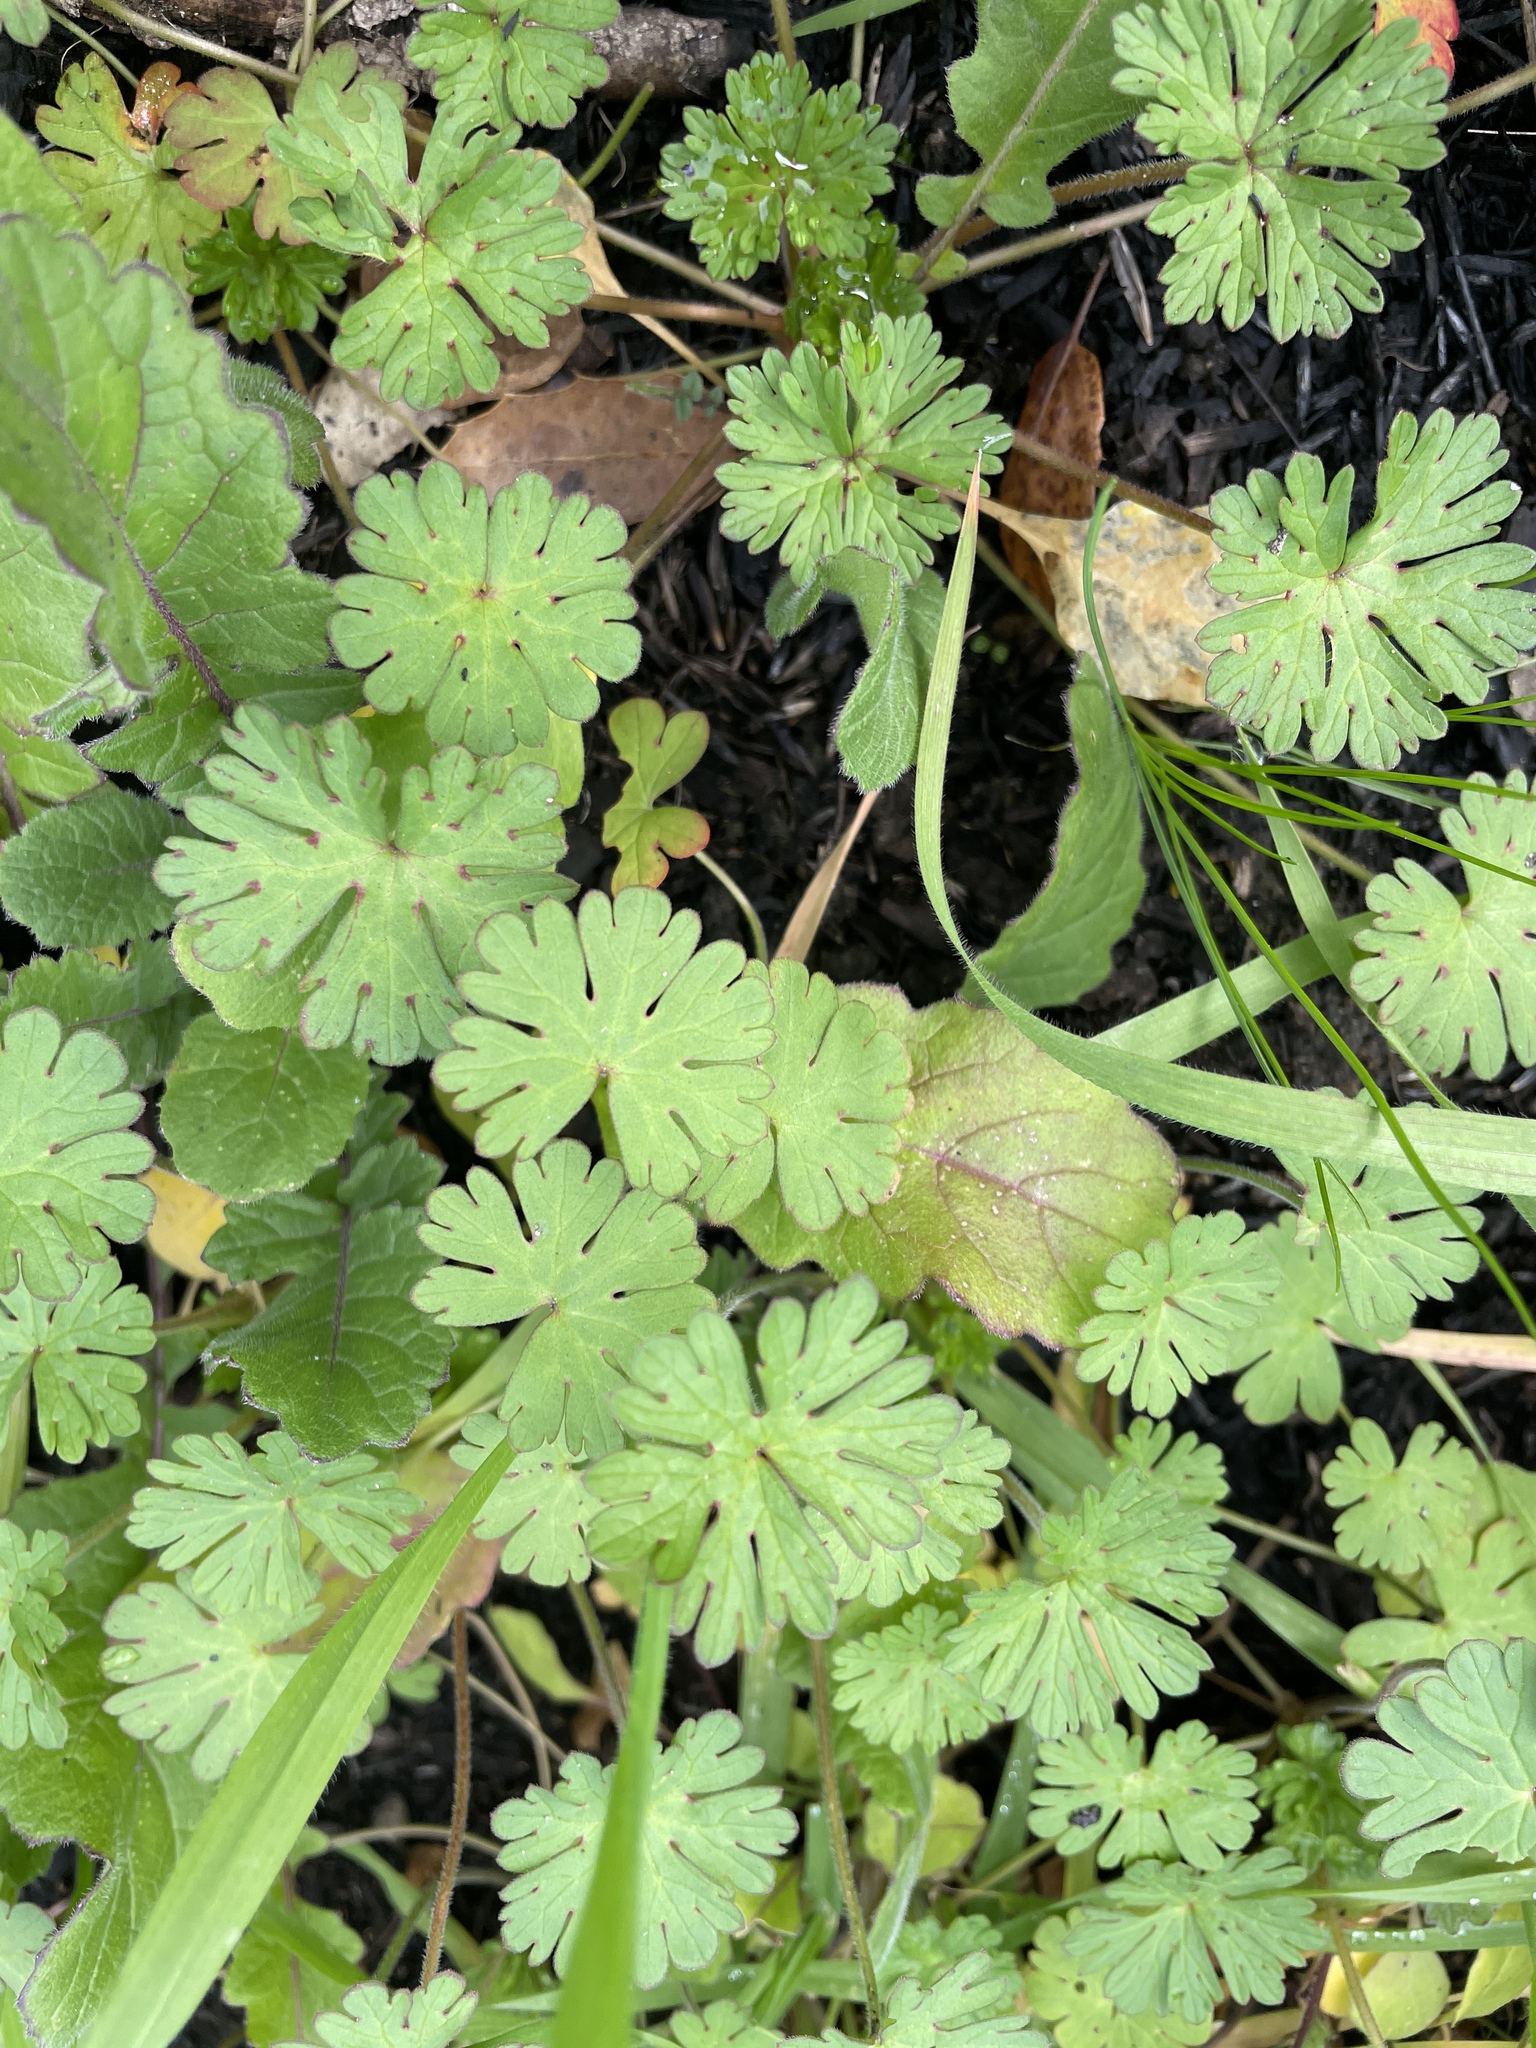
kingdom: Plantae
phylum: Tracheophyta
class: Magnoliopsida
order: Geraniales
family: Geraniaceae
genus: Geranium
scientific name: Geranium
